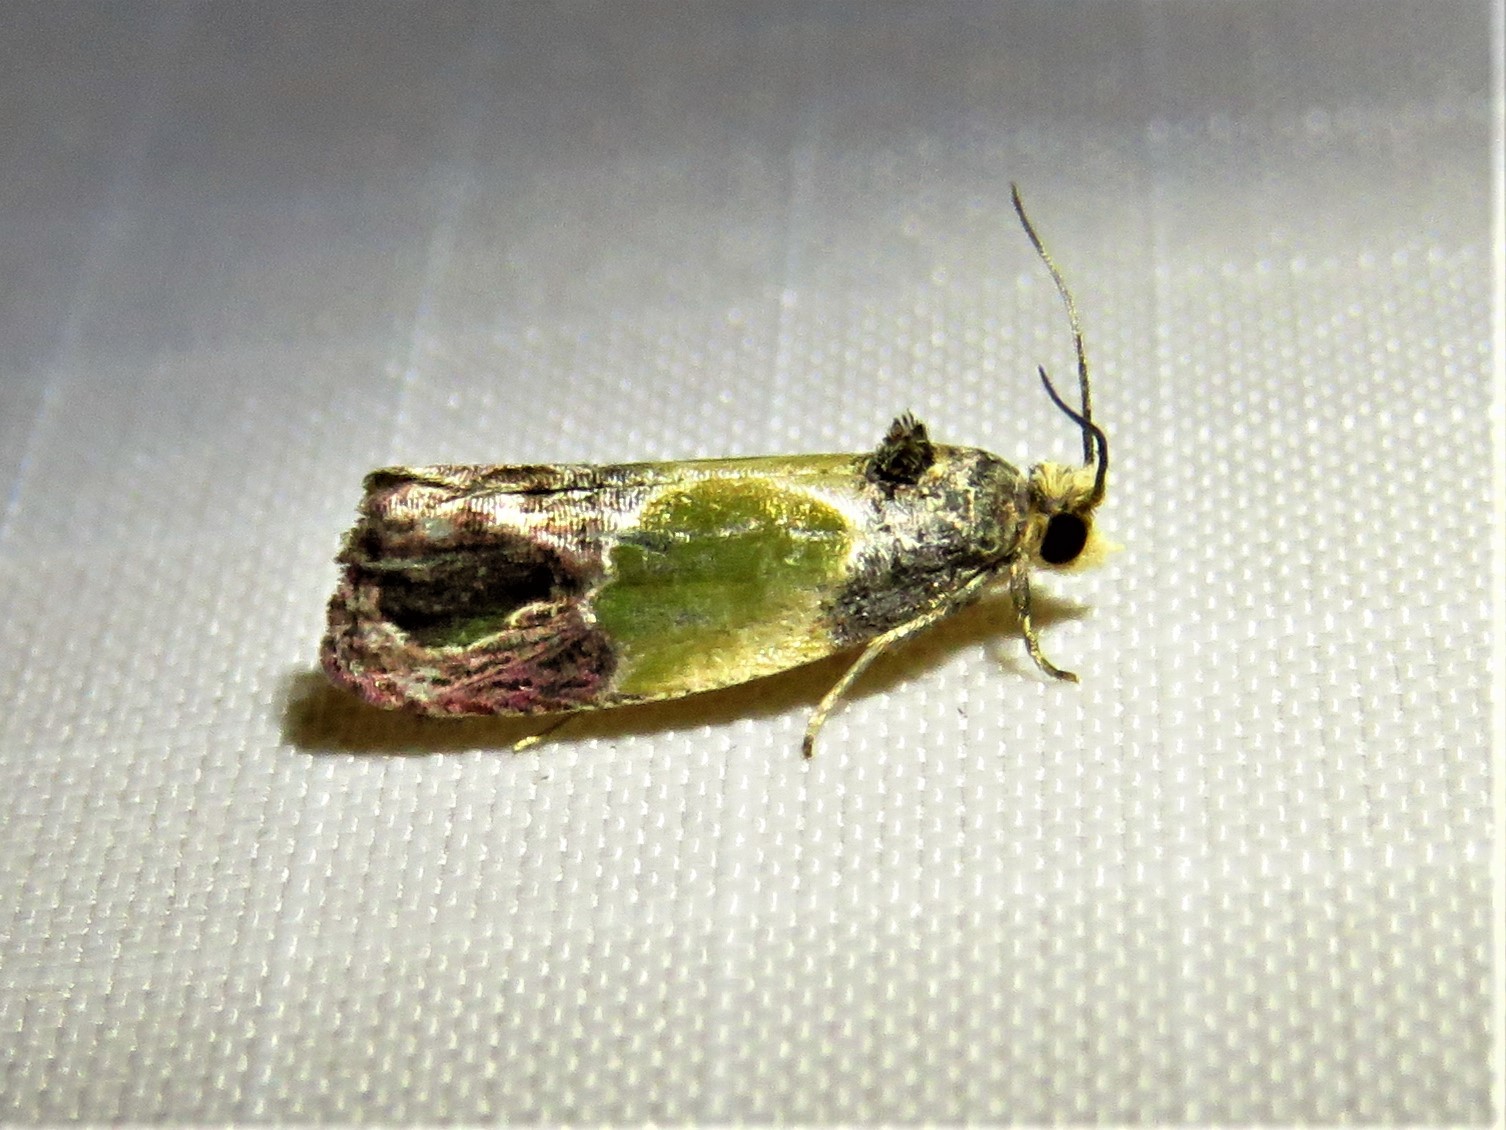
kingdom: Animalia
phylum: Arthropoda
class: Insecta
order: Lepidoptera
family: Tortricidae
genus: Eumarozia
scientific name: Eumarozia malachitana
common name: Sculptured moth
